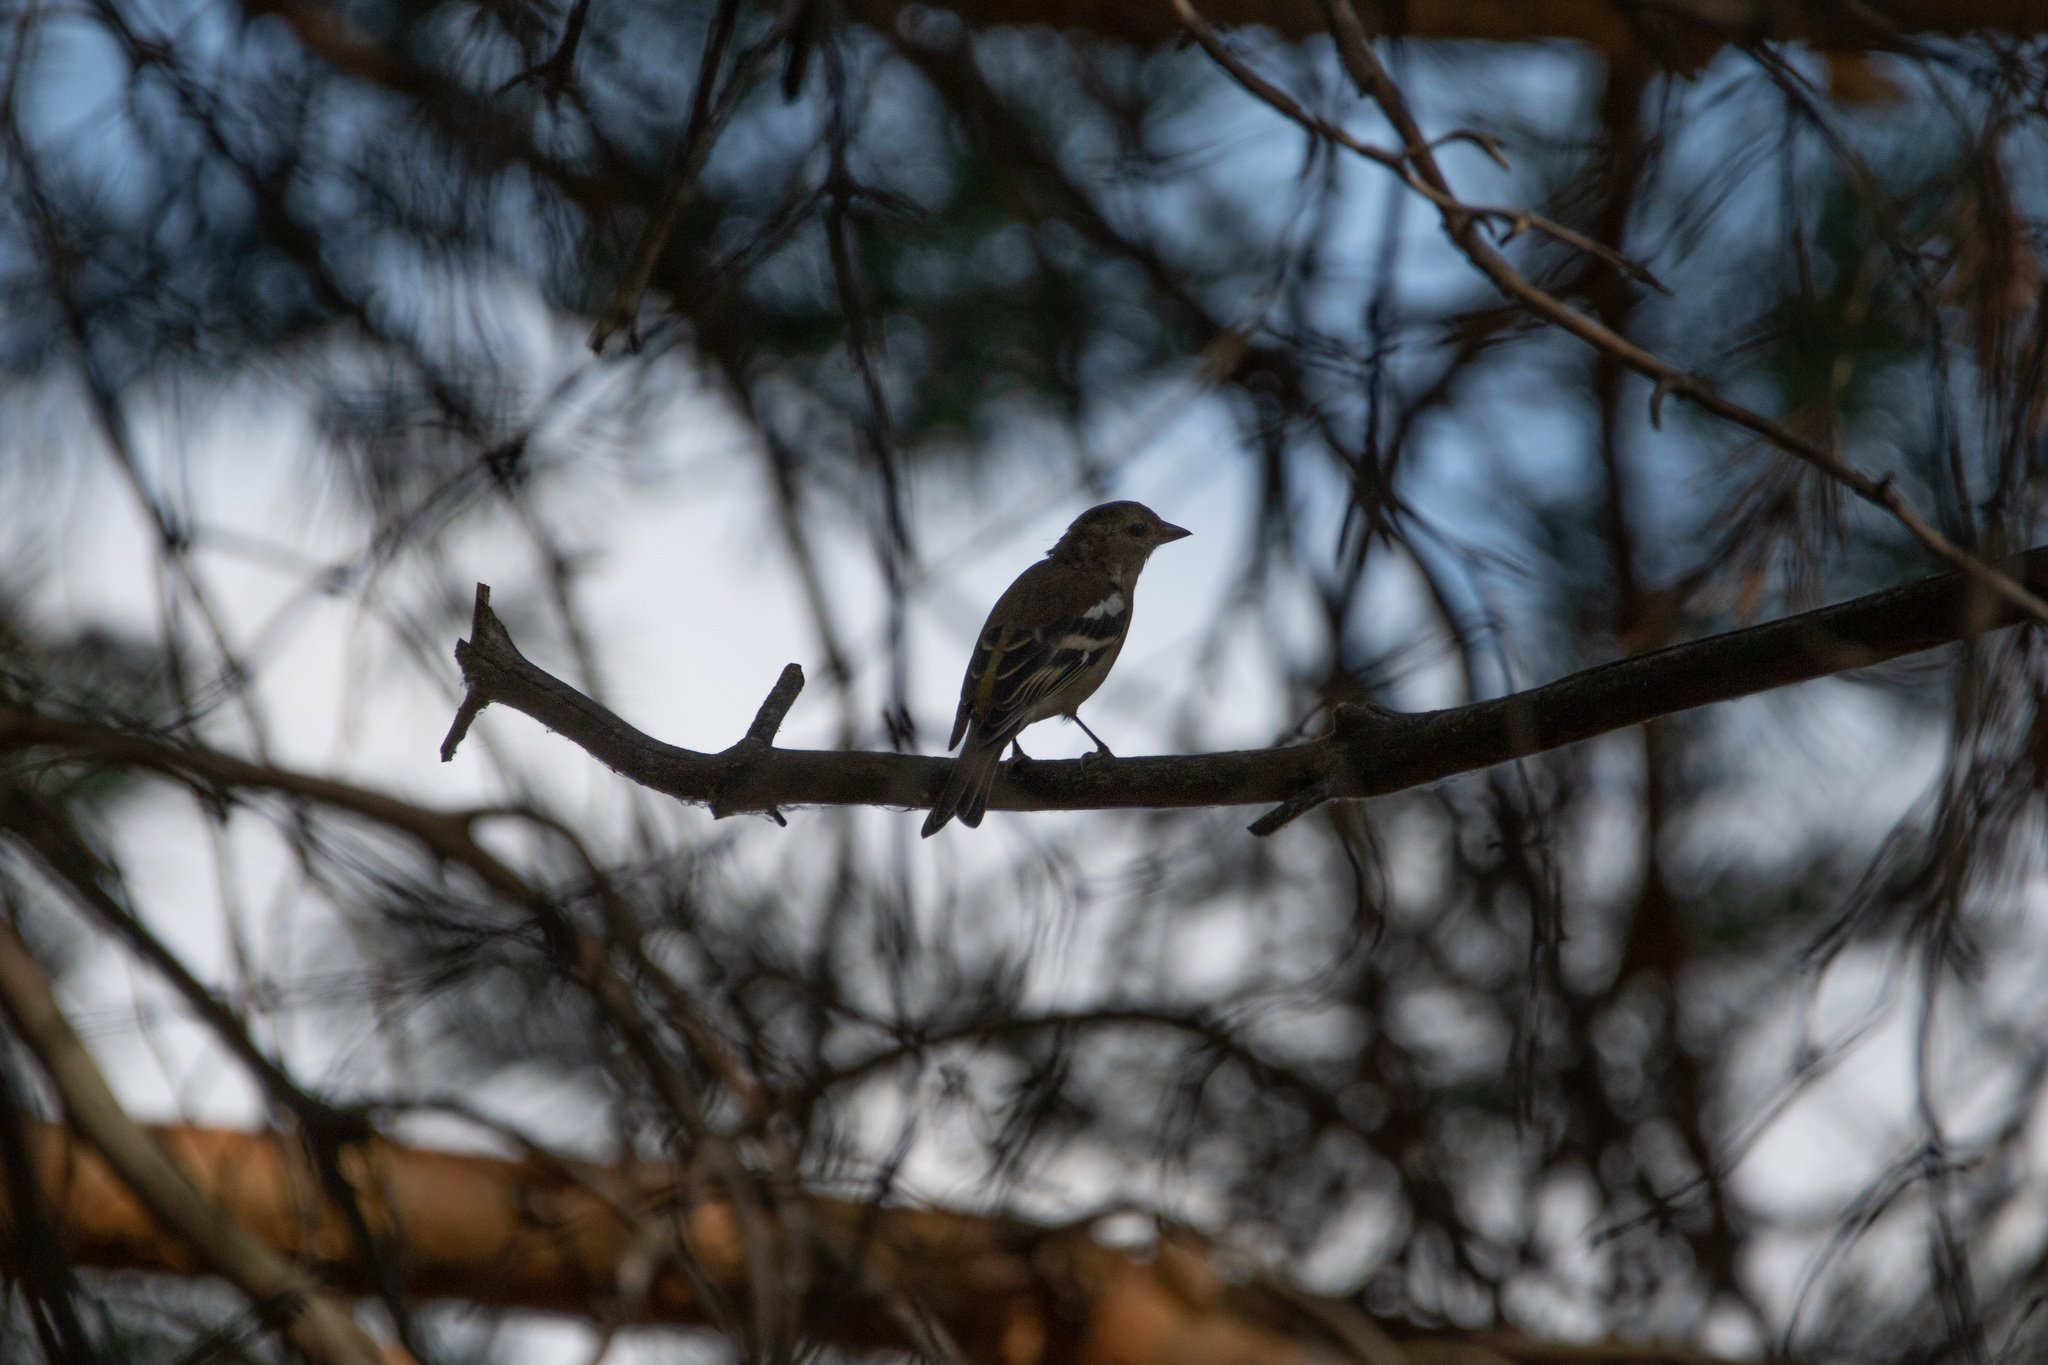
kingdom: Animalia
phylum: Chordata
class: Aves
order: Passeriformes
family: Fringillidae
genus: Fringilla
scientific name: Fringilla coelebs
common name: Common chaffinch
